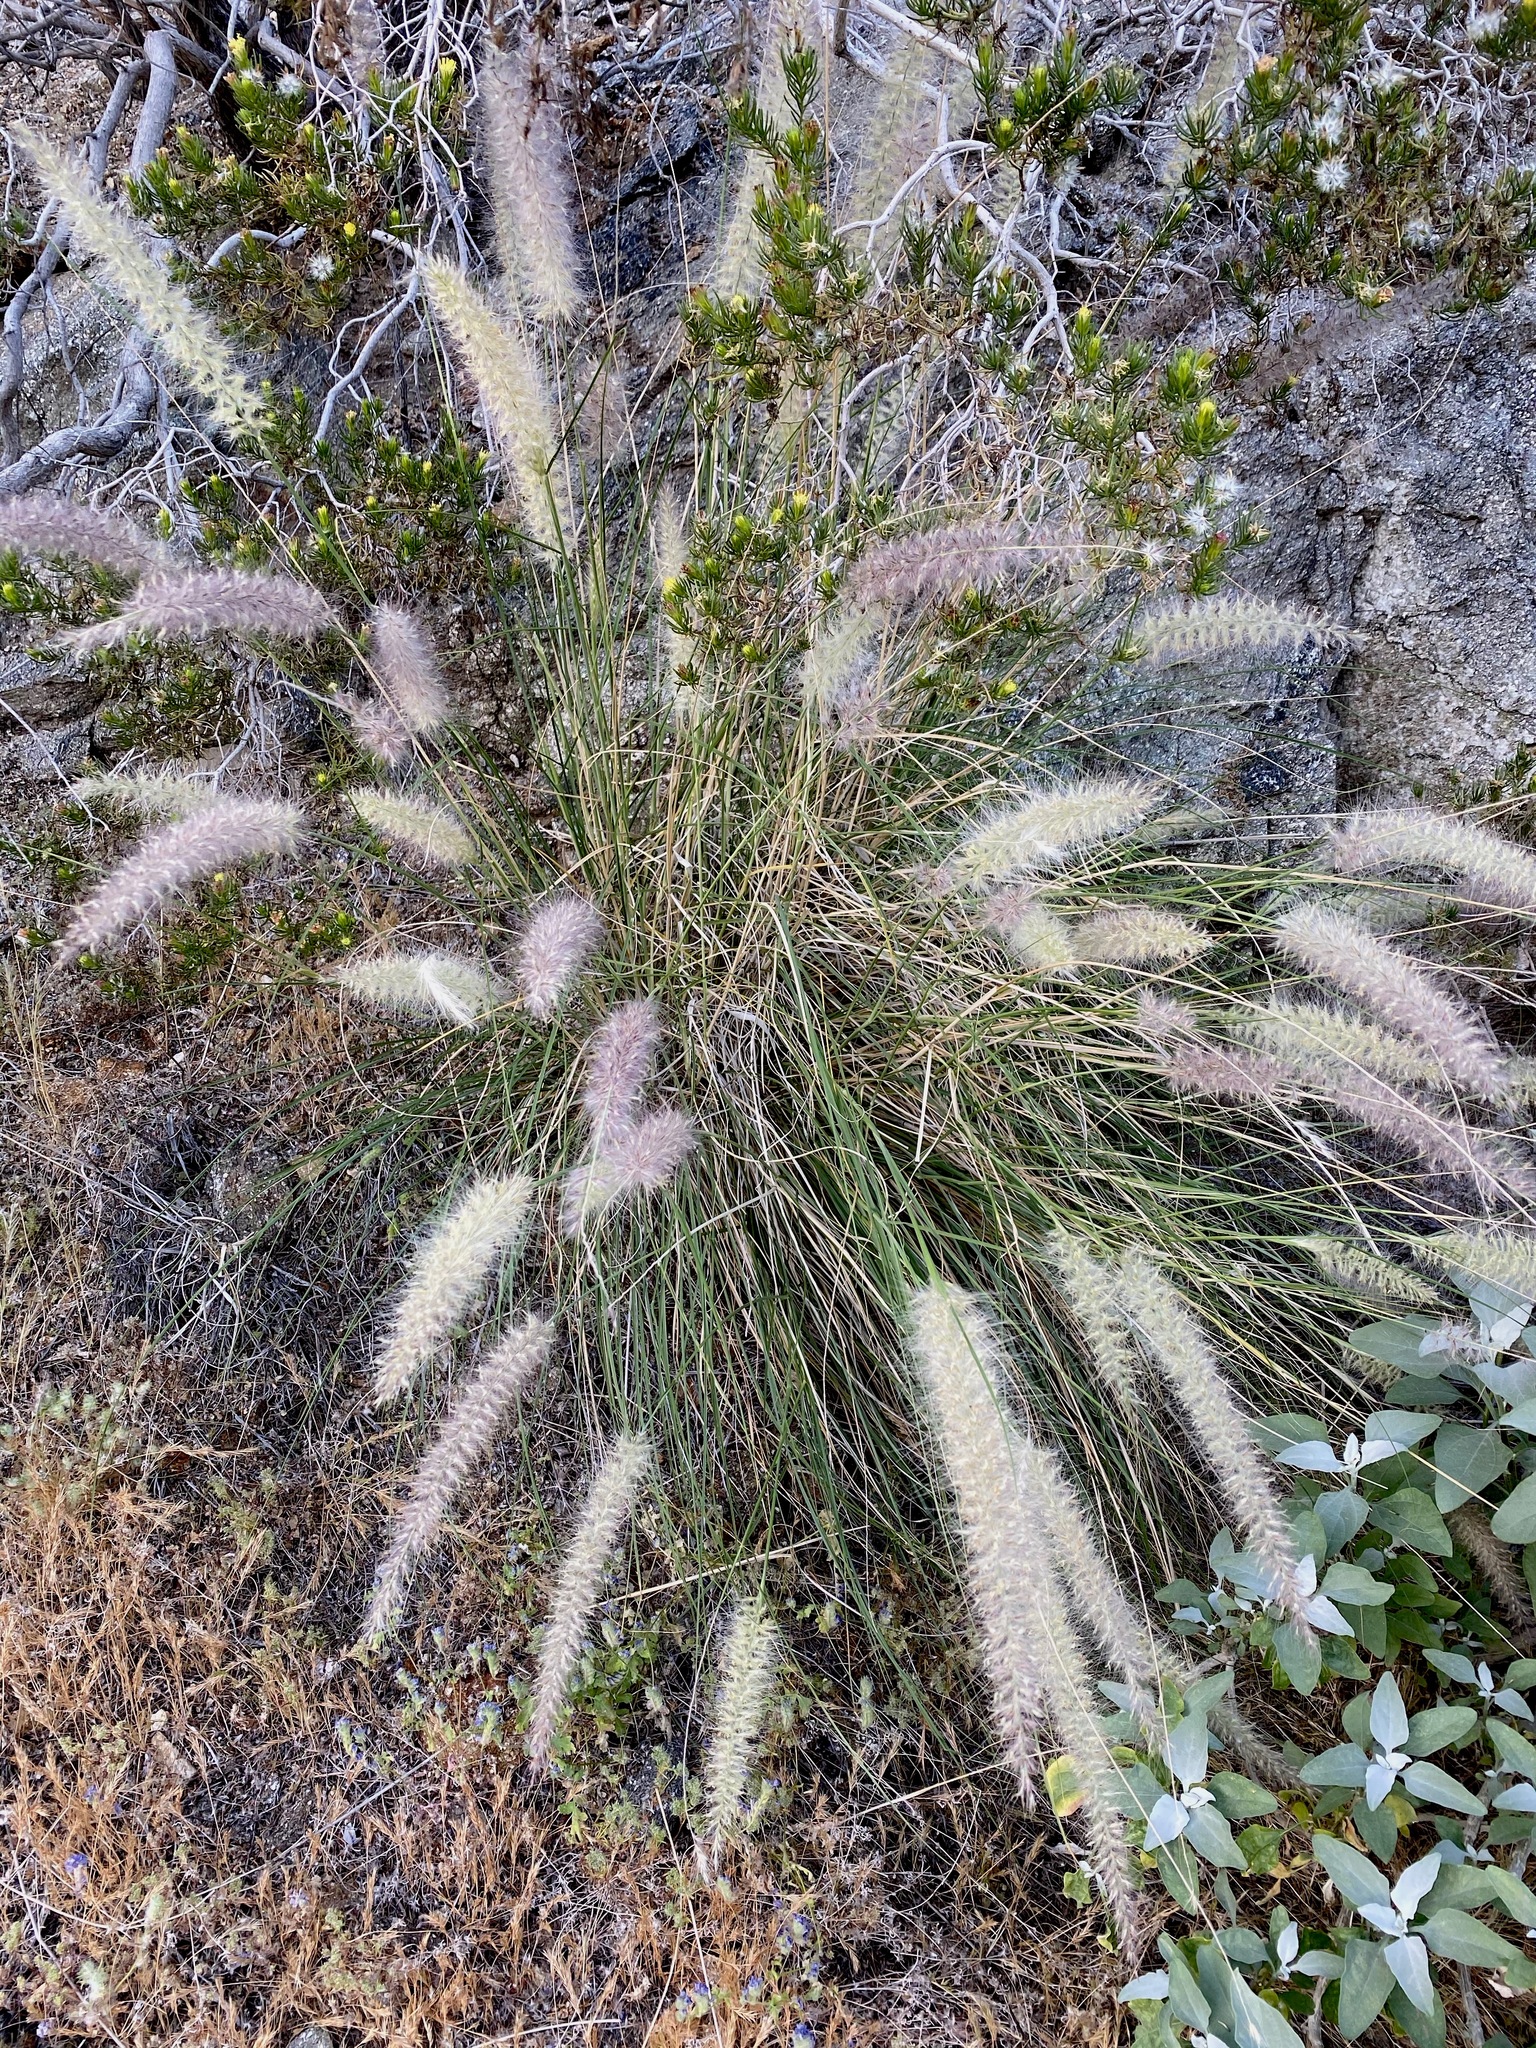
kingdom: Plantae
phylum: Tracheophyta
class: Liliopsida
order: Poales
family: Poaceae
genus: Cenchrus
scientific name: Cenchrus setaceus
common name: Crimson fountaingrass
